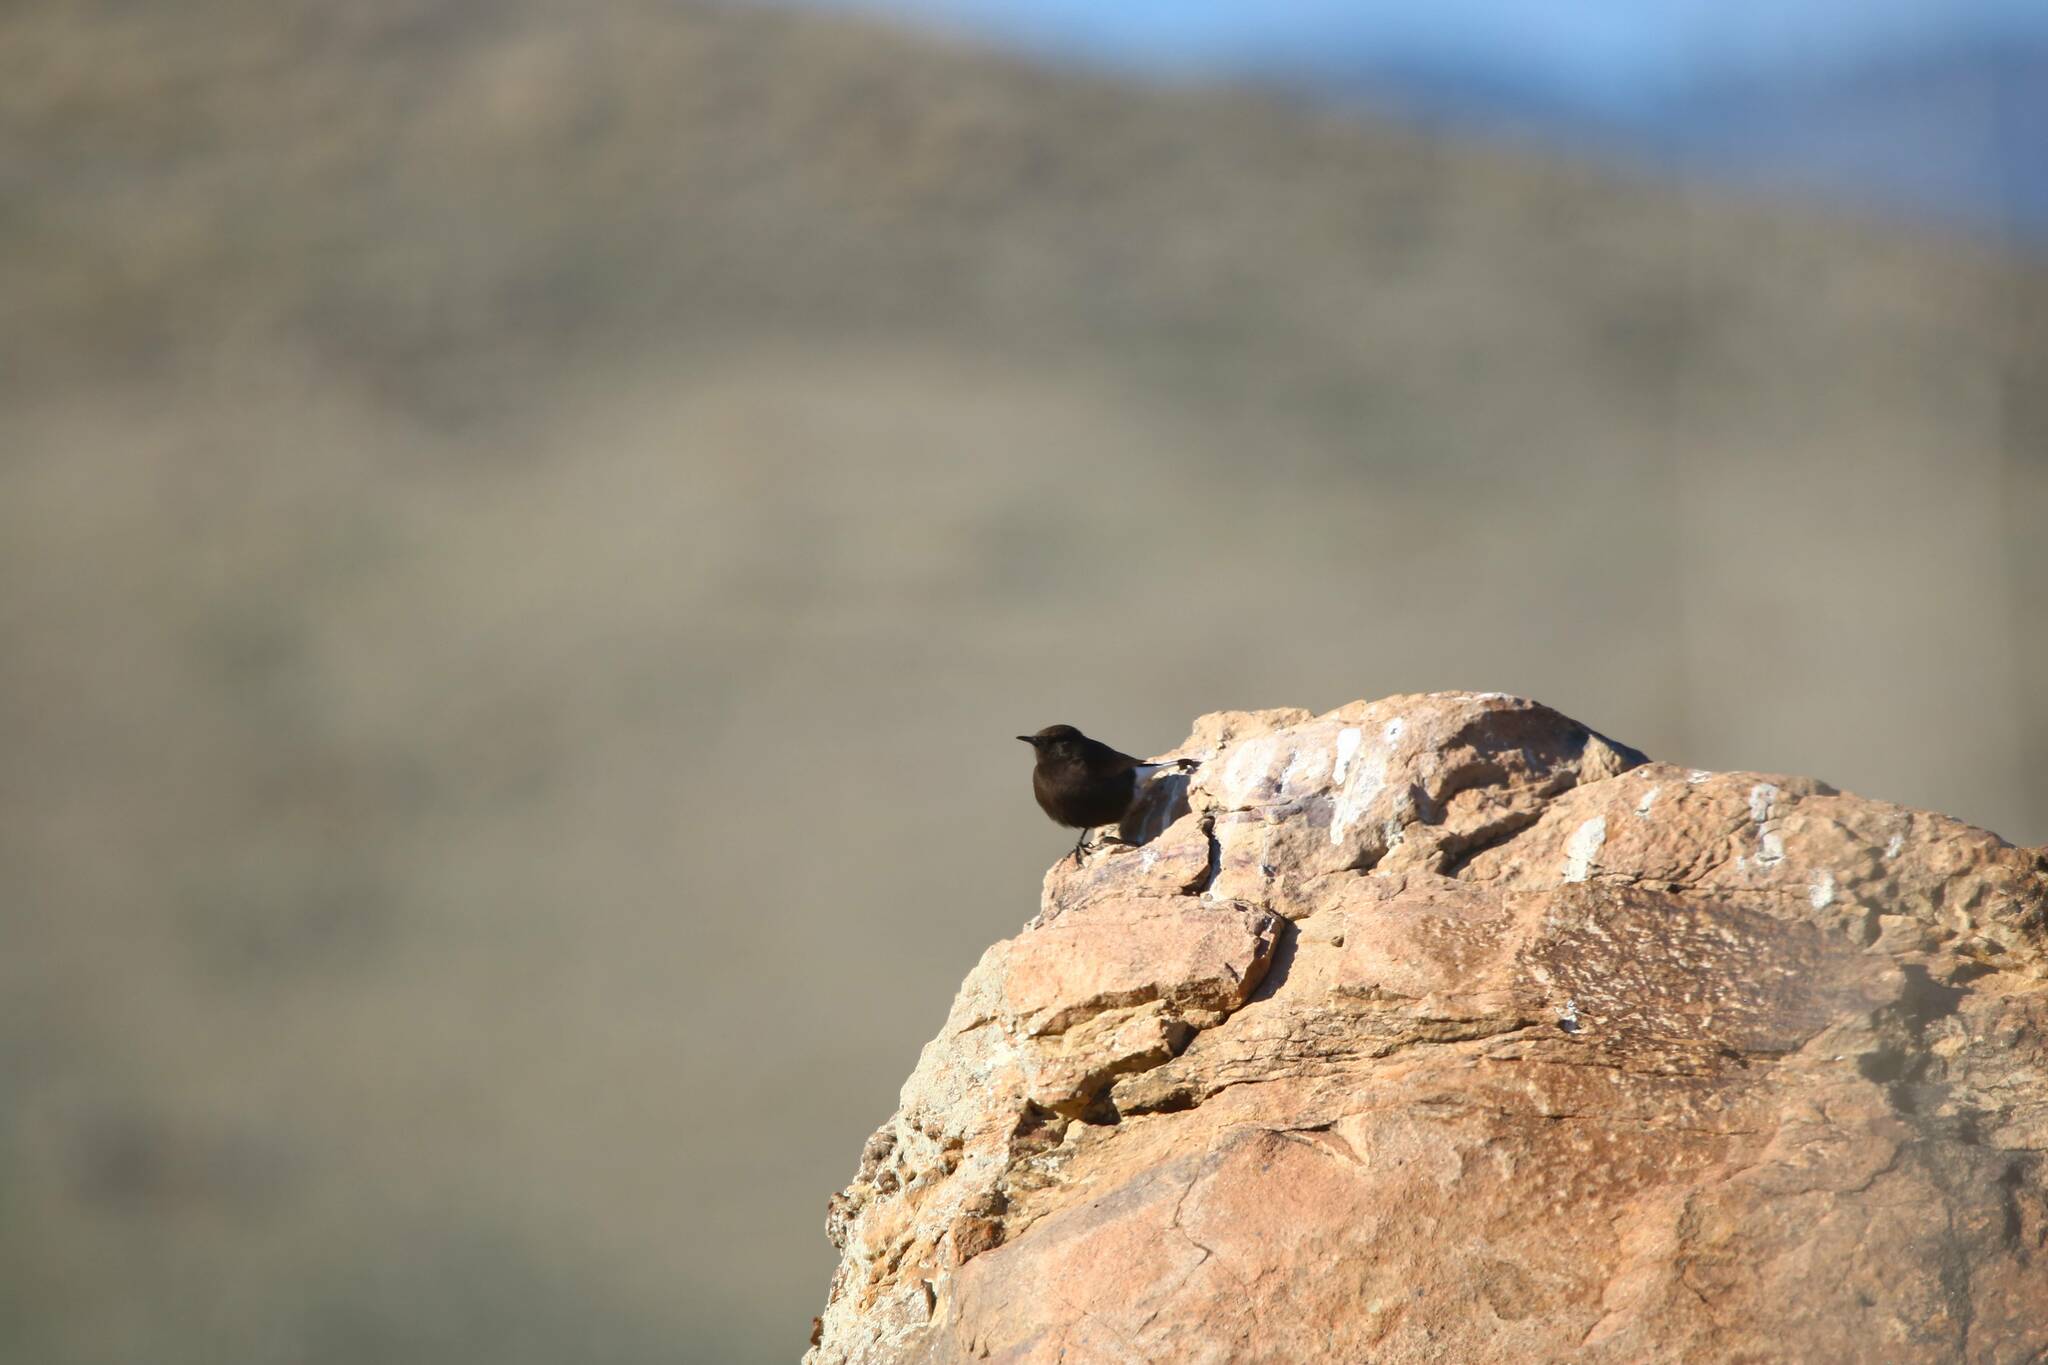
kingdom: Animalia
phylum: Chordata
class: Aves
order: Passeriformes
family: Muscicapidae
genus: Oenanthe
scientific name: Oenanthe leucura
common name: Black wheatear
